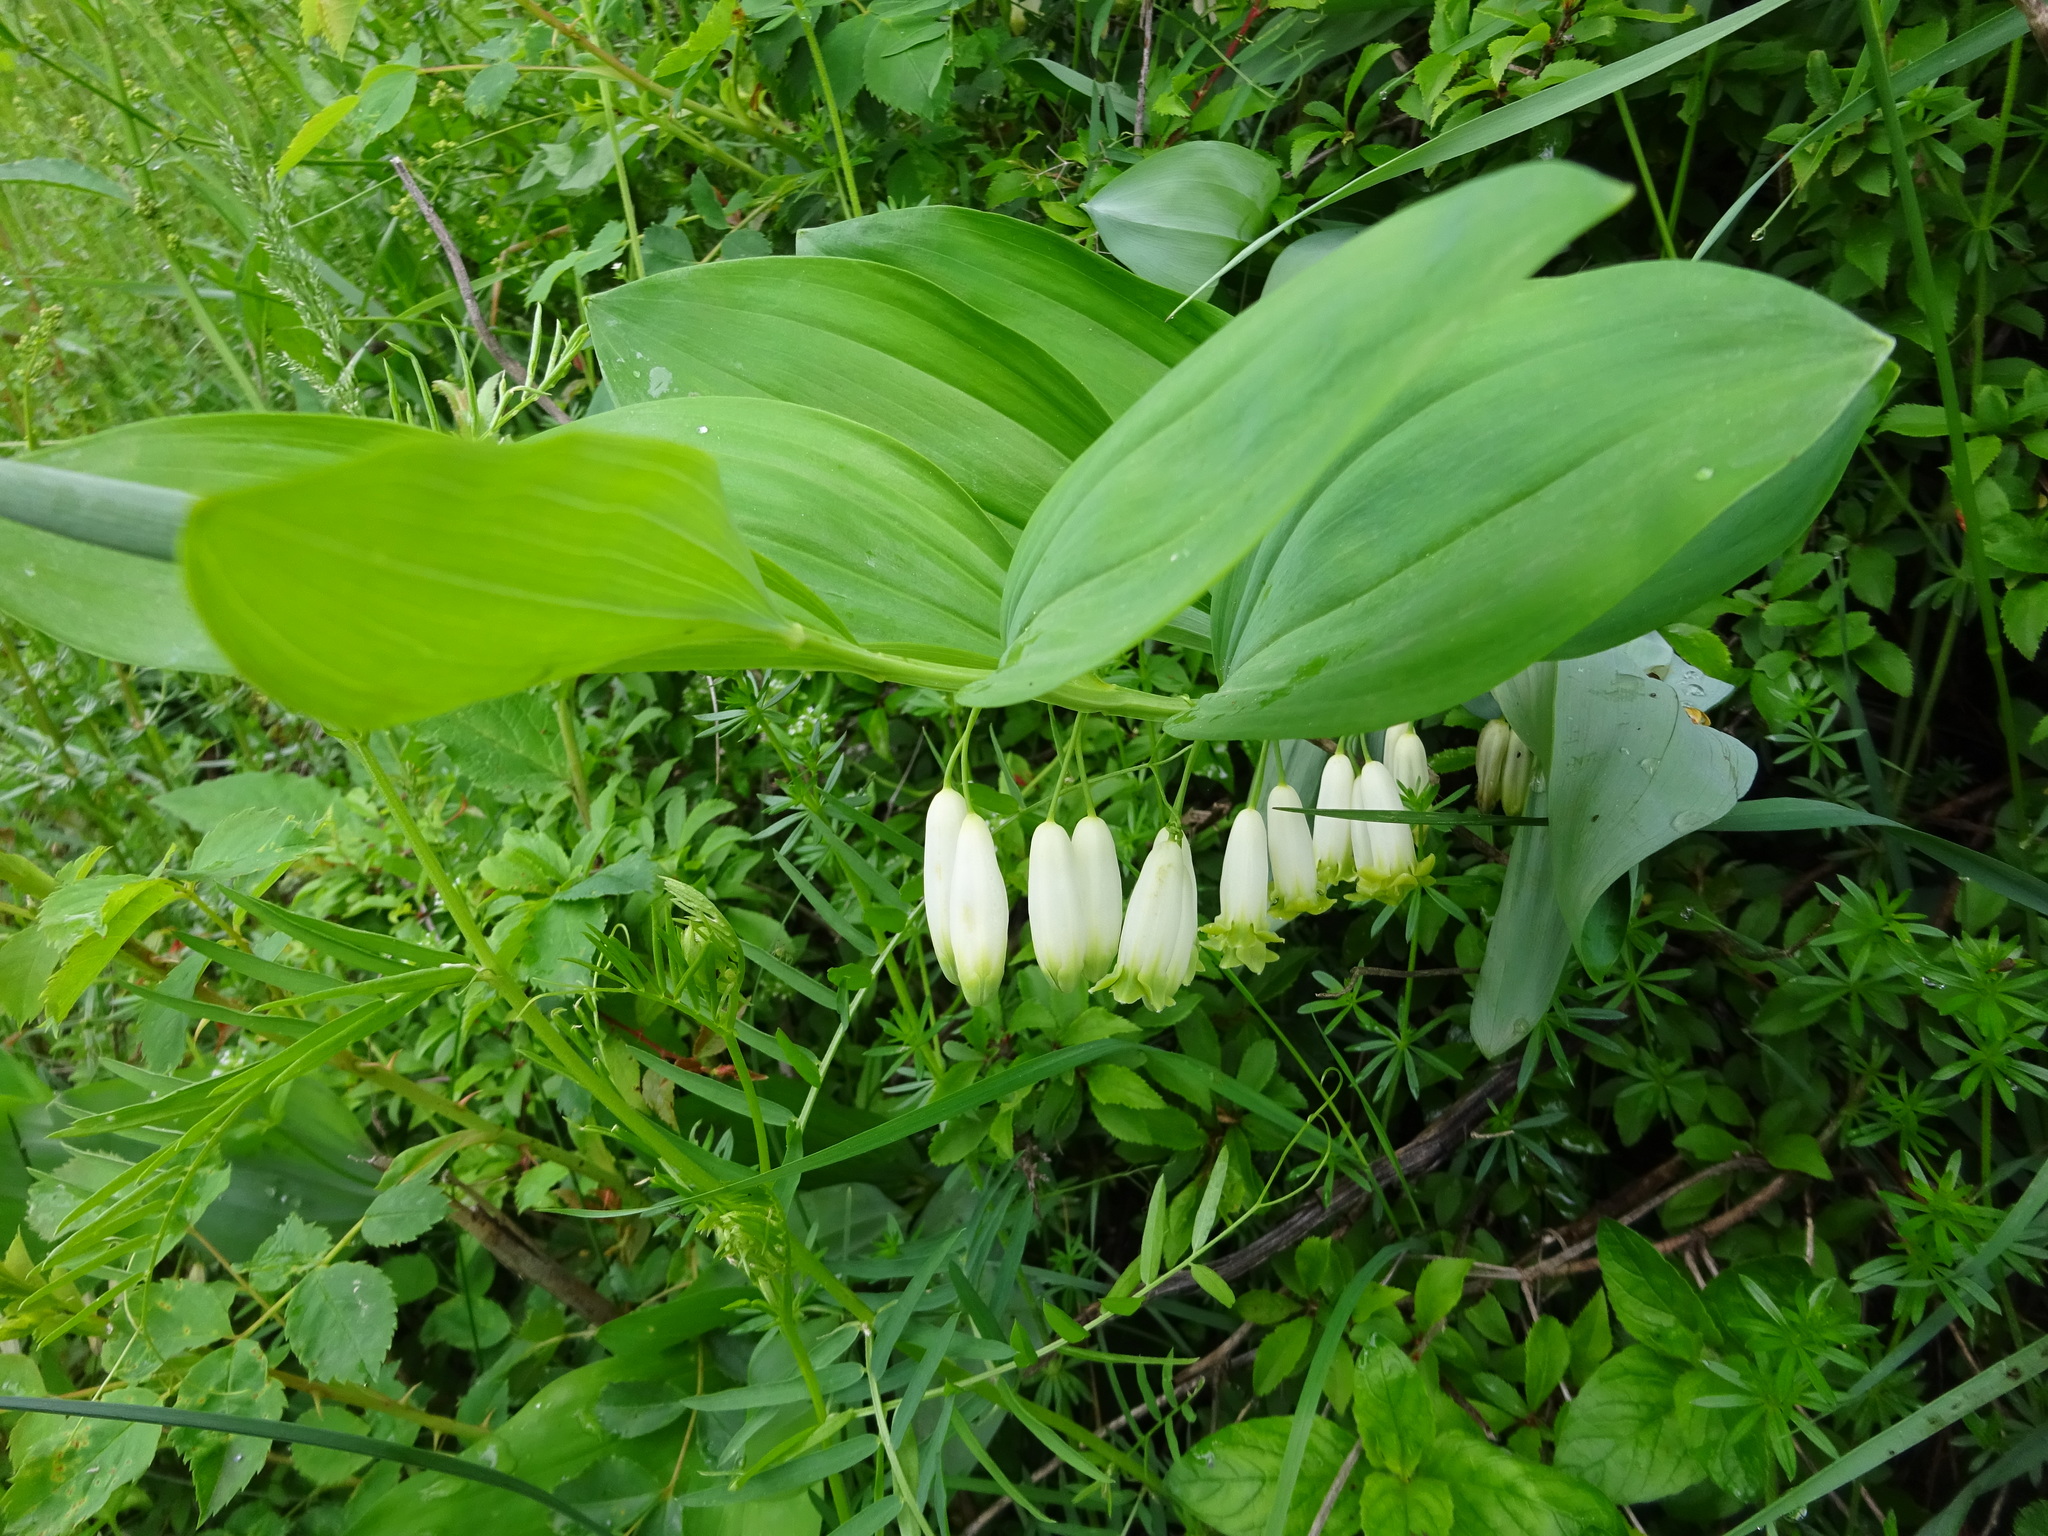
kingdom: Plantae
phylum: Tracheophyta
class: Liliopsida
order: Asparagales
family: Asparagaceae
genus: Polygonatum
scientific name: Polygonatum odoratum
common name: Angular solomon's-seal
